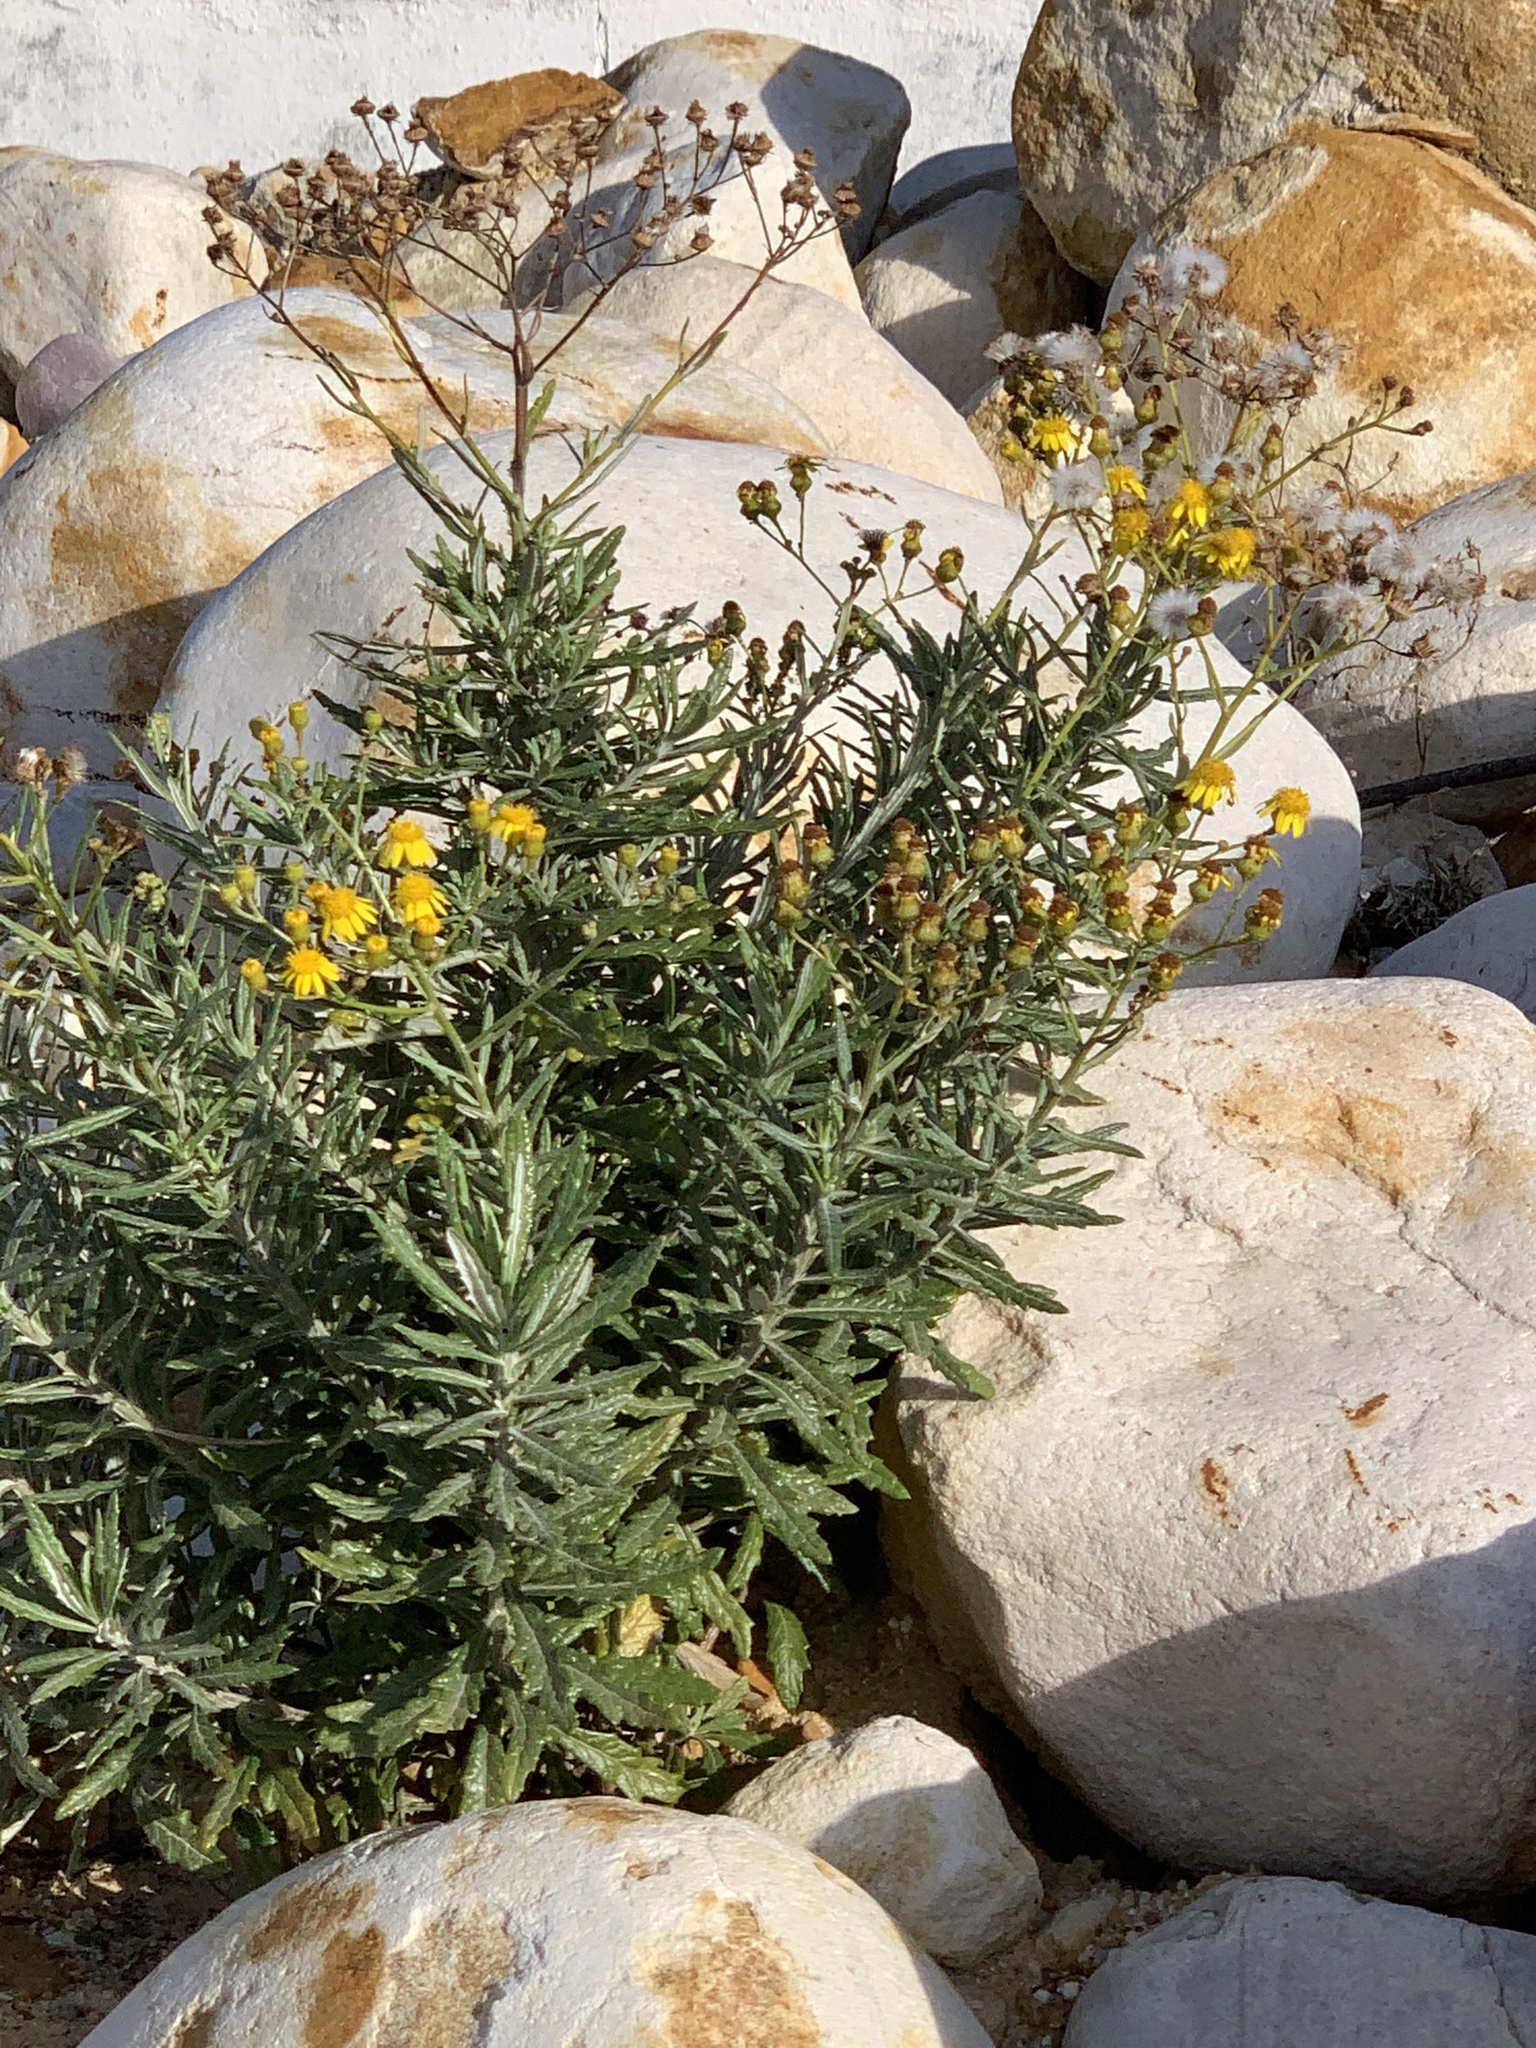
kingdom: Plantae
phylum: Tracheophyta
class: Magnoliopsida
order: Asterales
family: Asteraceae
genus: Senecio
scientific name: Senecio pterophorus
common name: Shoddy ragwort
